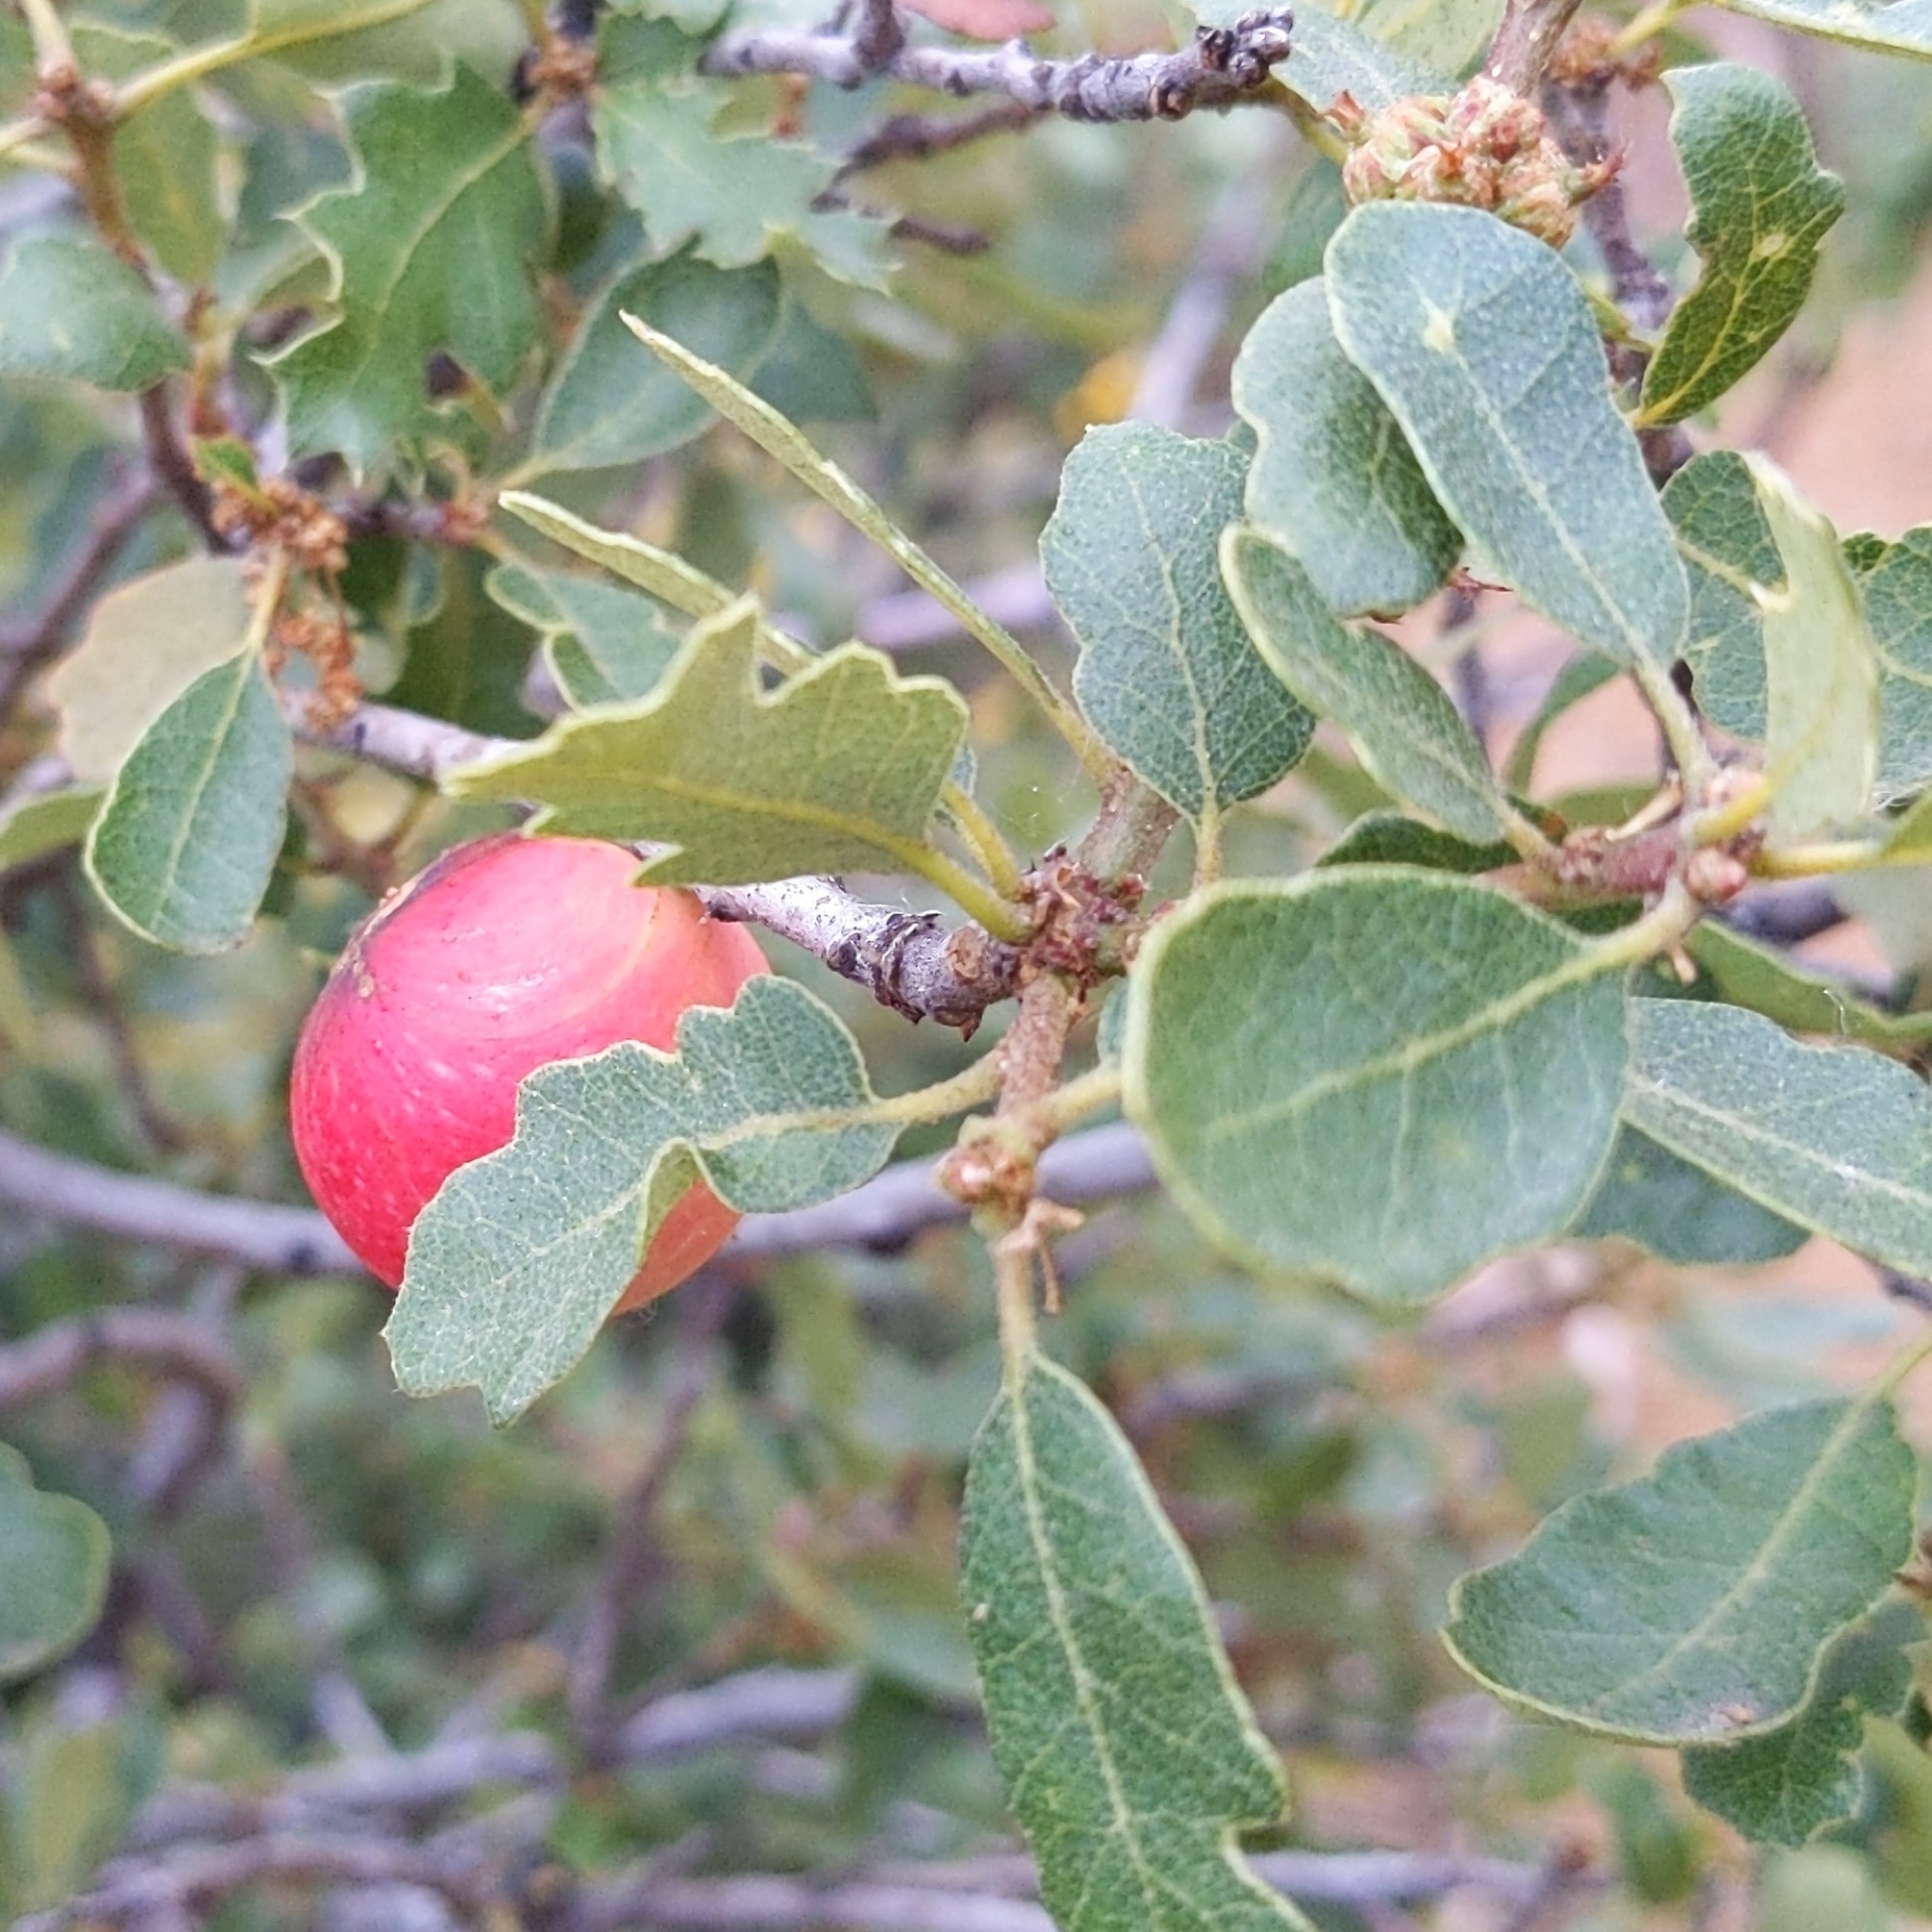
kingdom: Animalia
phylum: Arthropoda
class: Insecta
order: Hymenoptera
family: Cynipidae
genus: Andricus
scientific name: Andricus quercuscalifornicus
